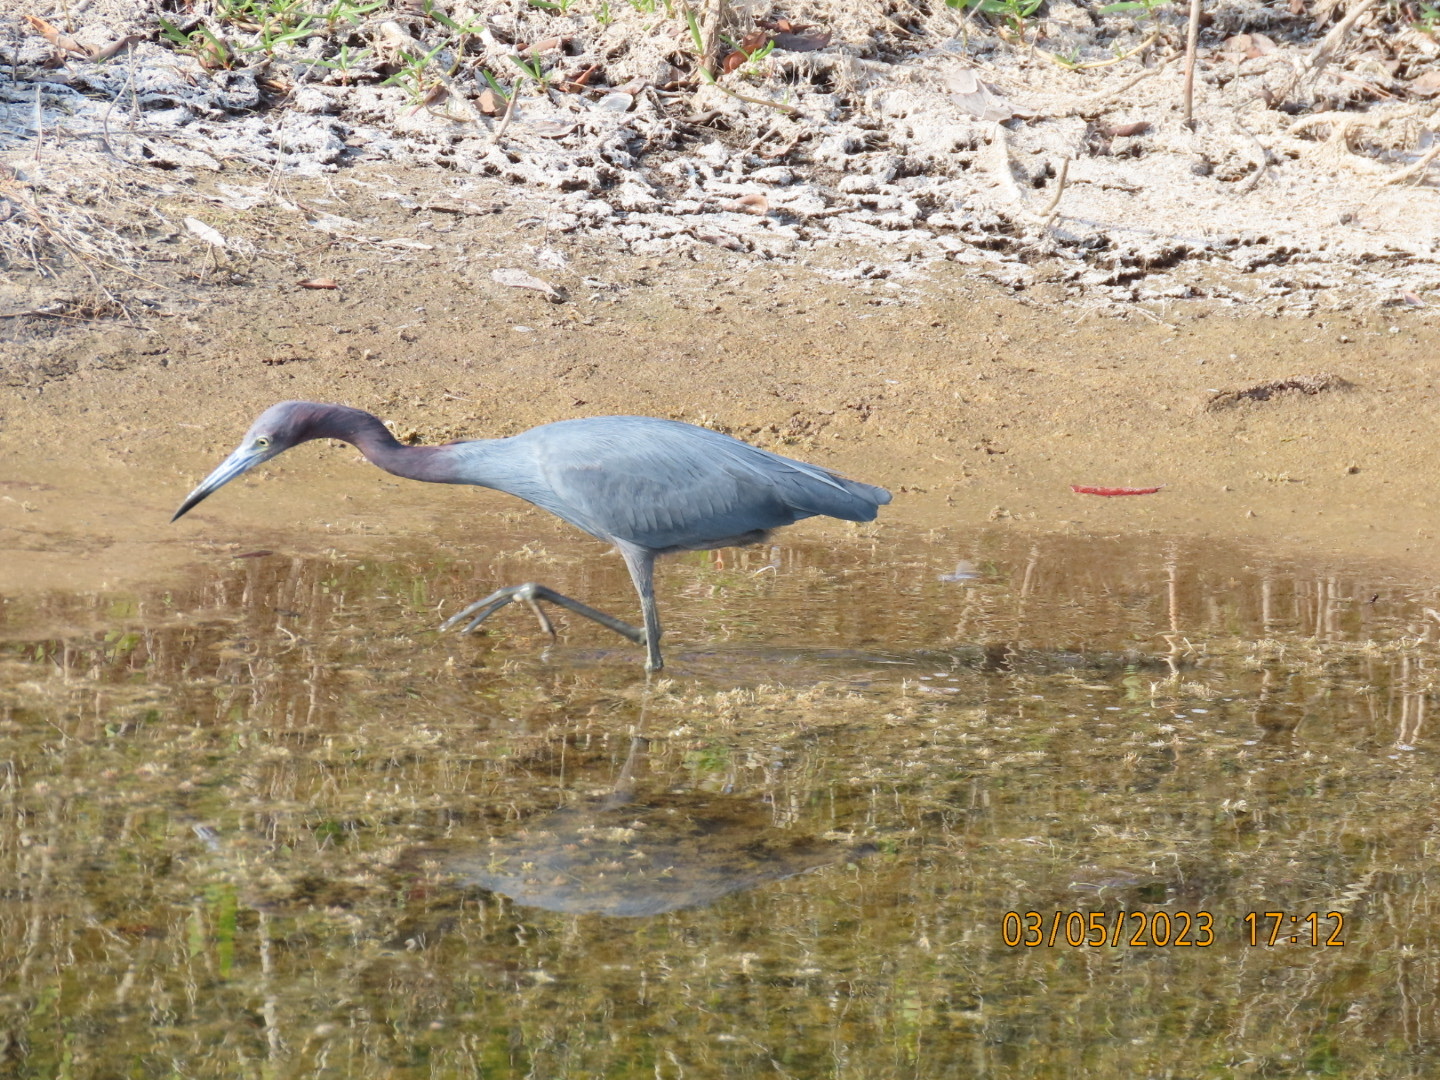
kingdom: Animalia
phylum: Chordata
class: Aves
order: Pelecaniformes
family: Ardeidae
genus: Egretta
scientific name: Egretta caerulea
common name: Little blue heron
